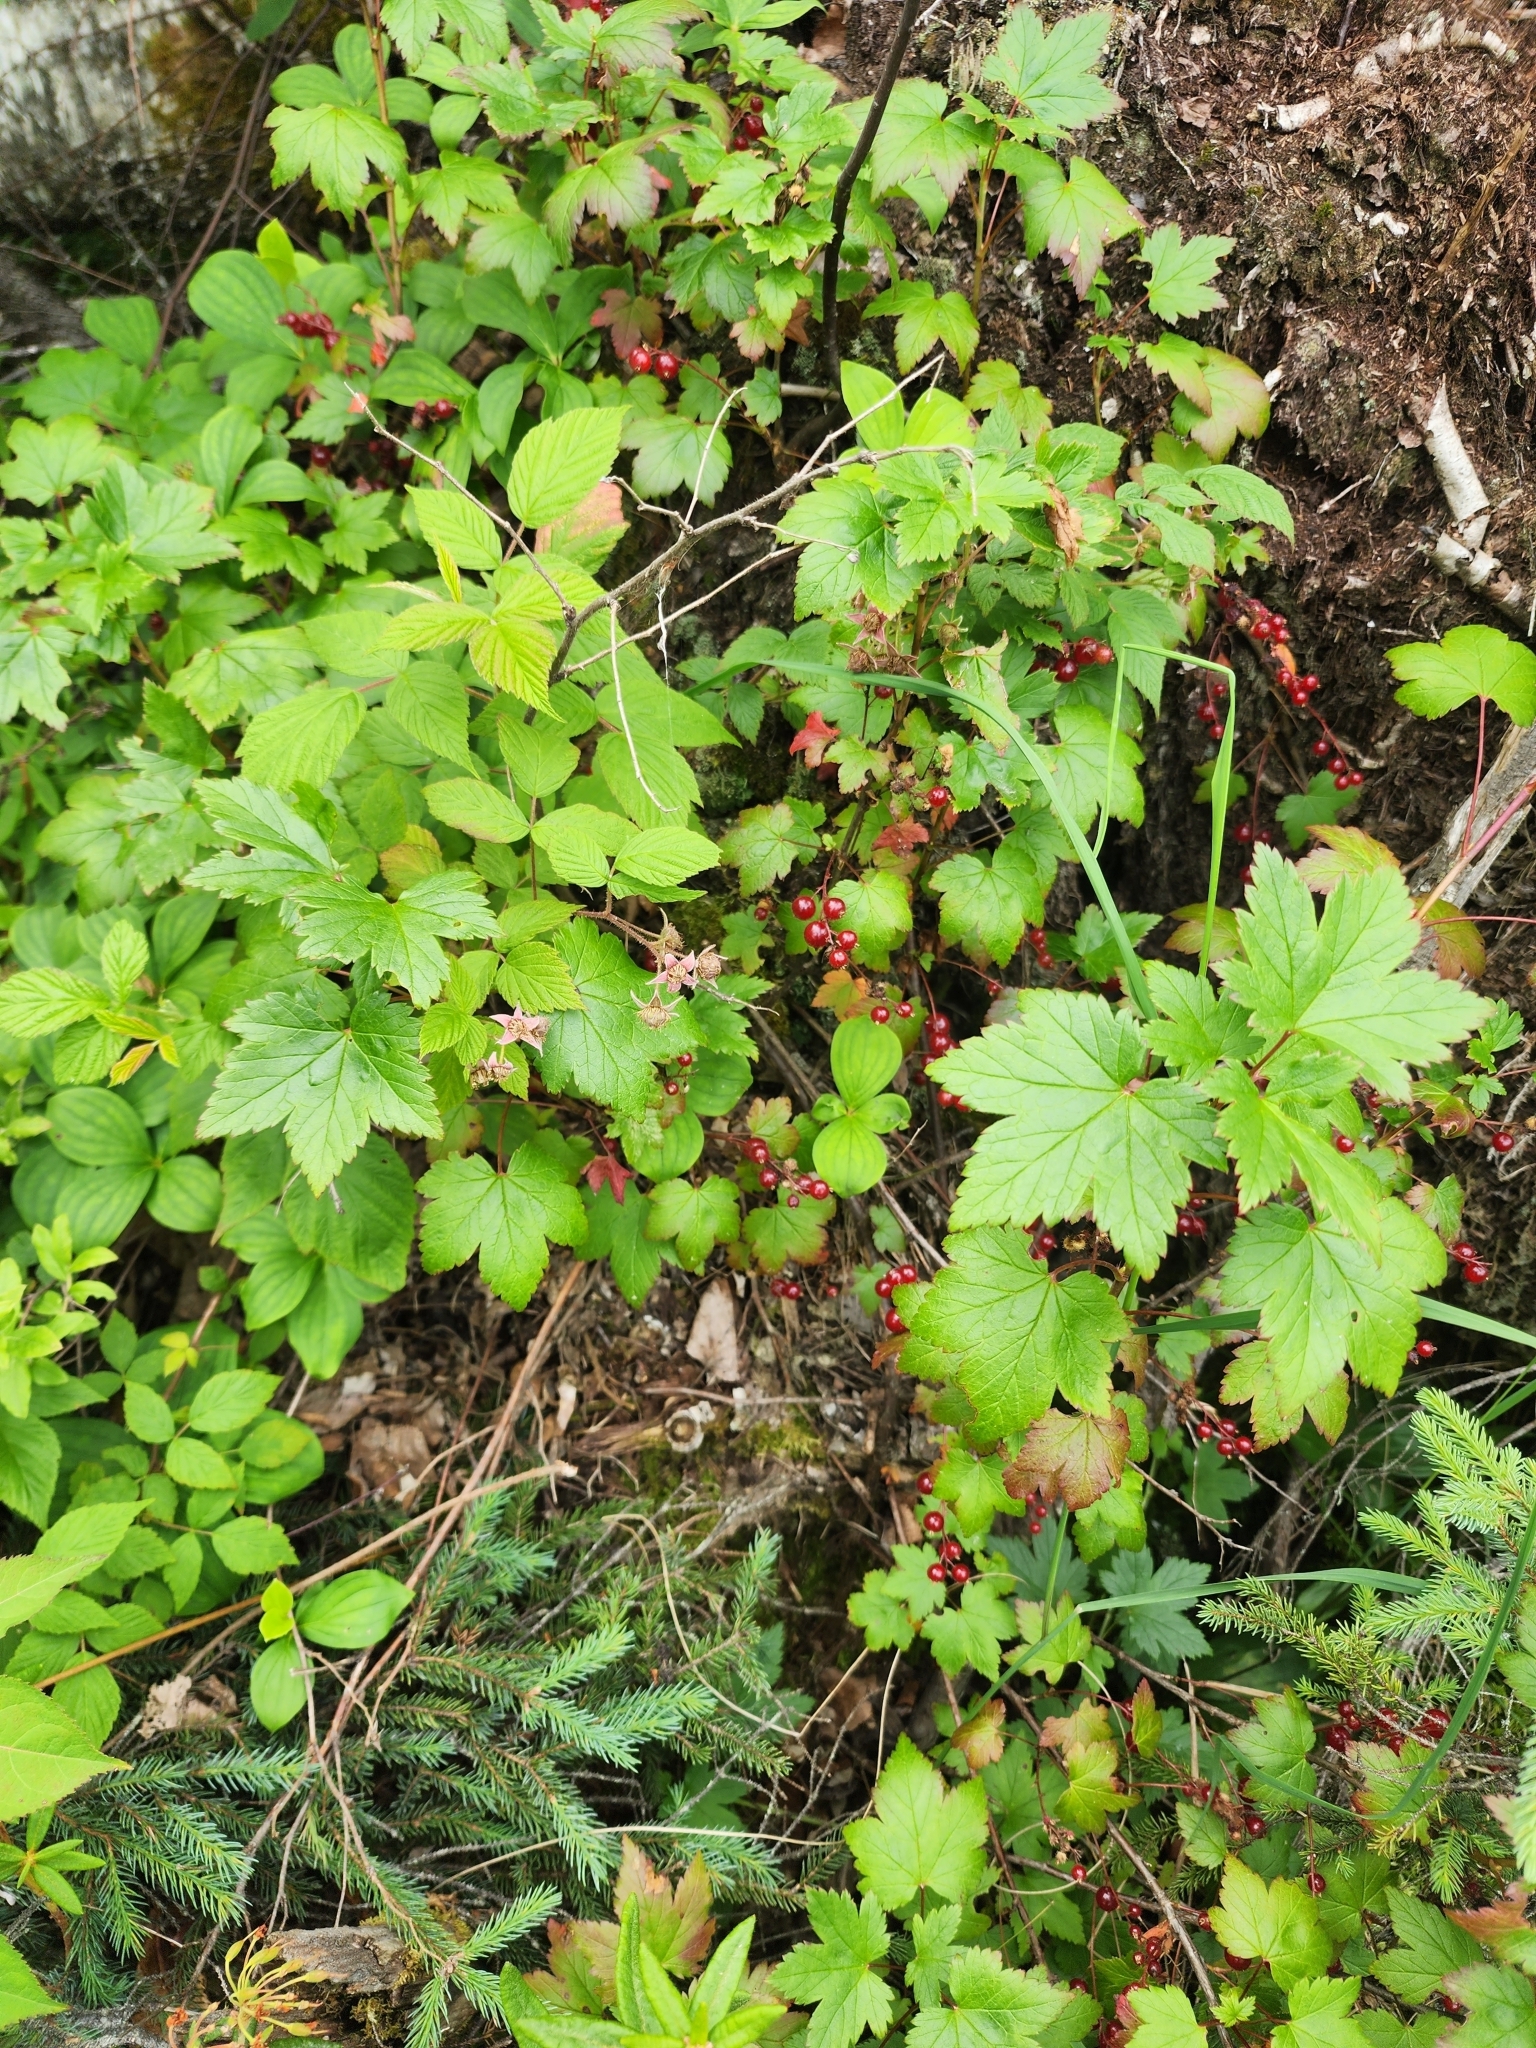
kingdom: Plantae
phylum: Tracheophyta
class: Magnoliopsida
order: Saxifragales
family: Grossulariaceae
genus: Ribes
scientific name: Ribes glandulosum
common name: Skunk currant
